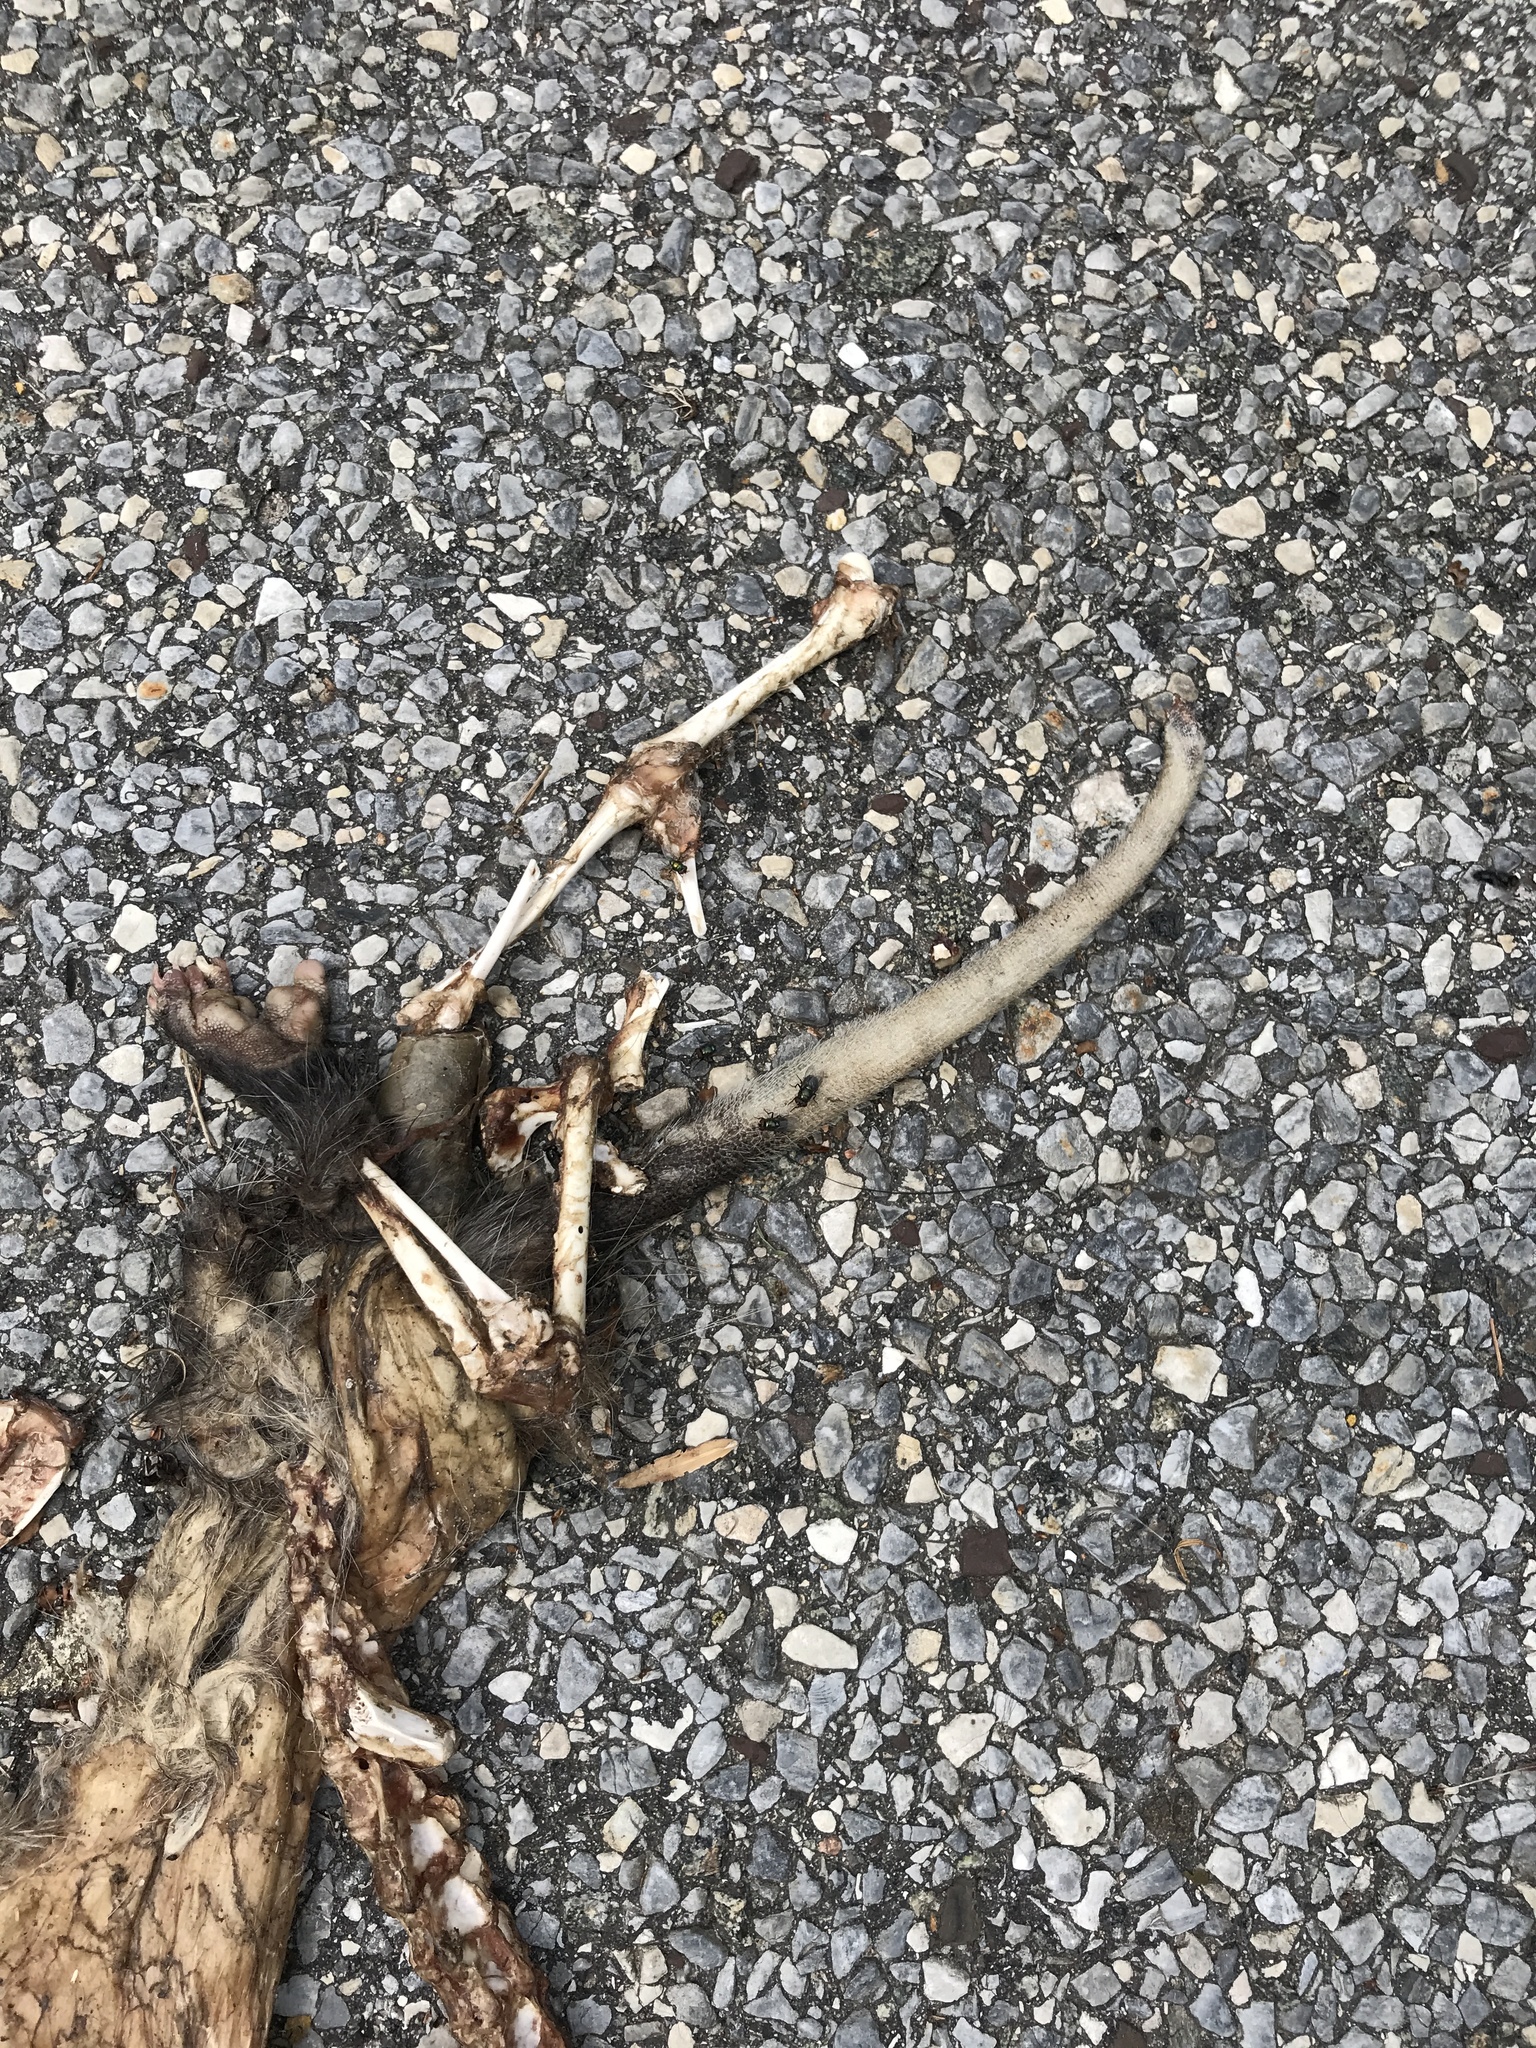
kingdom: Animalia
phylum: Chordata
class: Mammalia
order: Didelphimorphia
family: Didelphidae
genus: Didelphis
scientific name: Didelphis virginiana
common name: Virginia opossum
